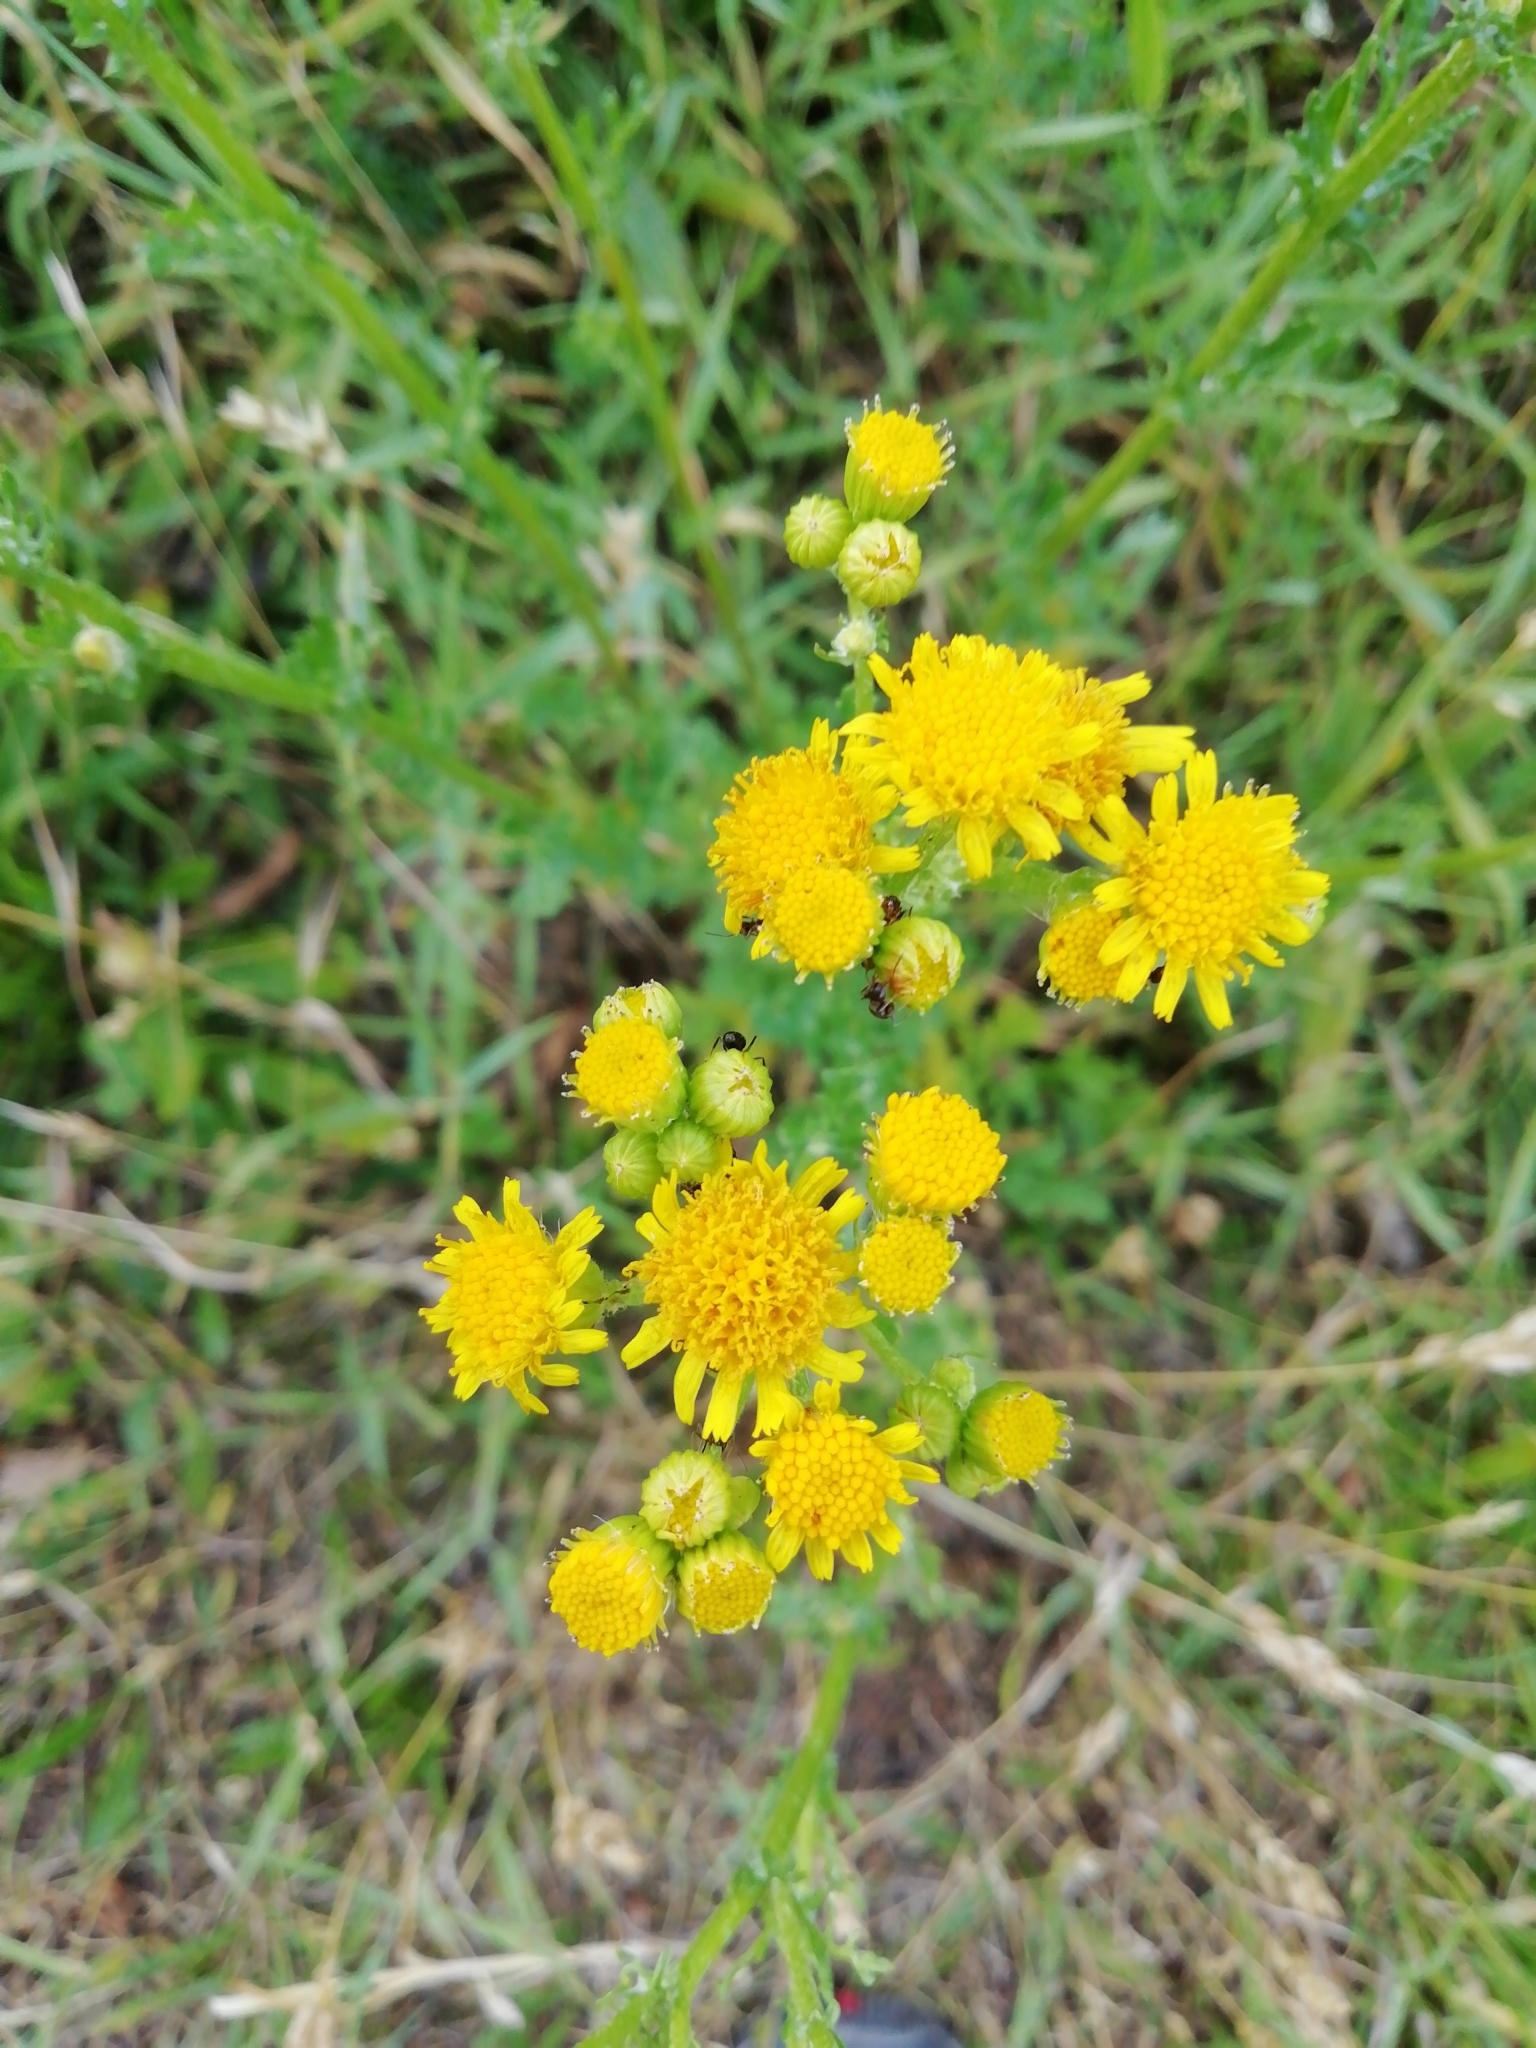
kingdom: Plantae
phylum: Tracheophyta
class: Magnoliopsida
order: Asterales
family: Asteraceae
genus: Jacobaea
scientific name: Jacobaea vulgaris
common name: Stinking willie
